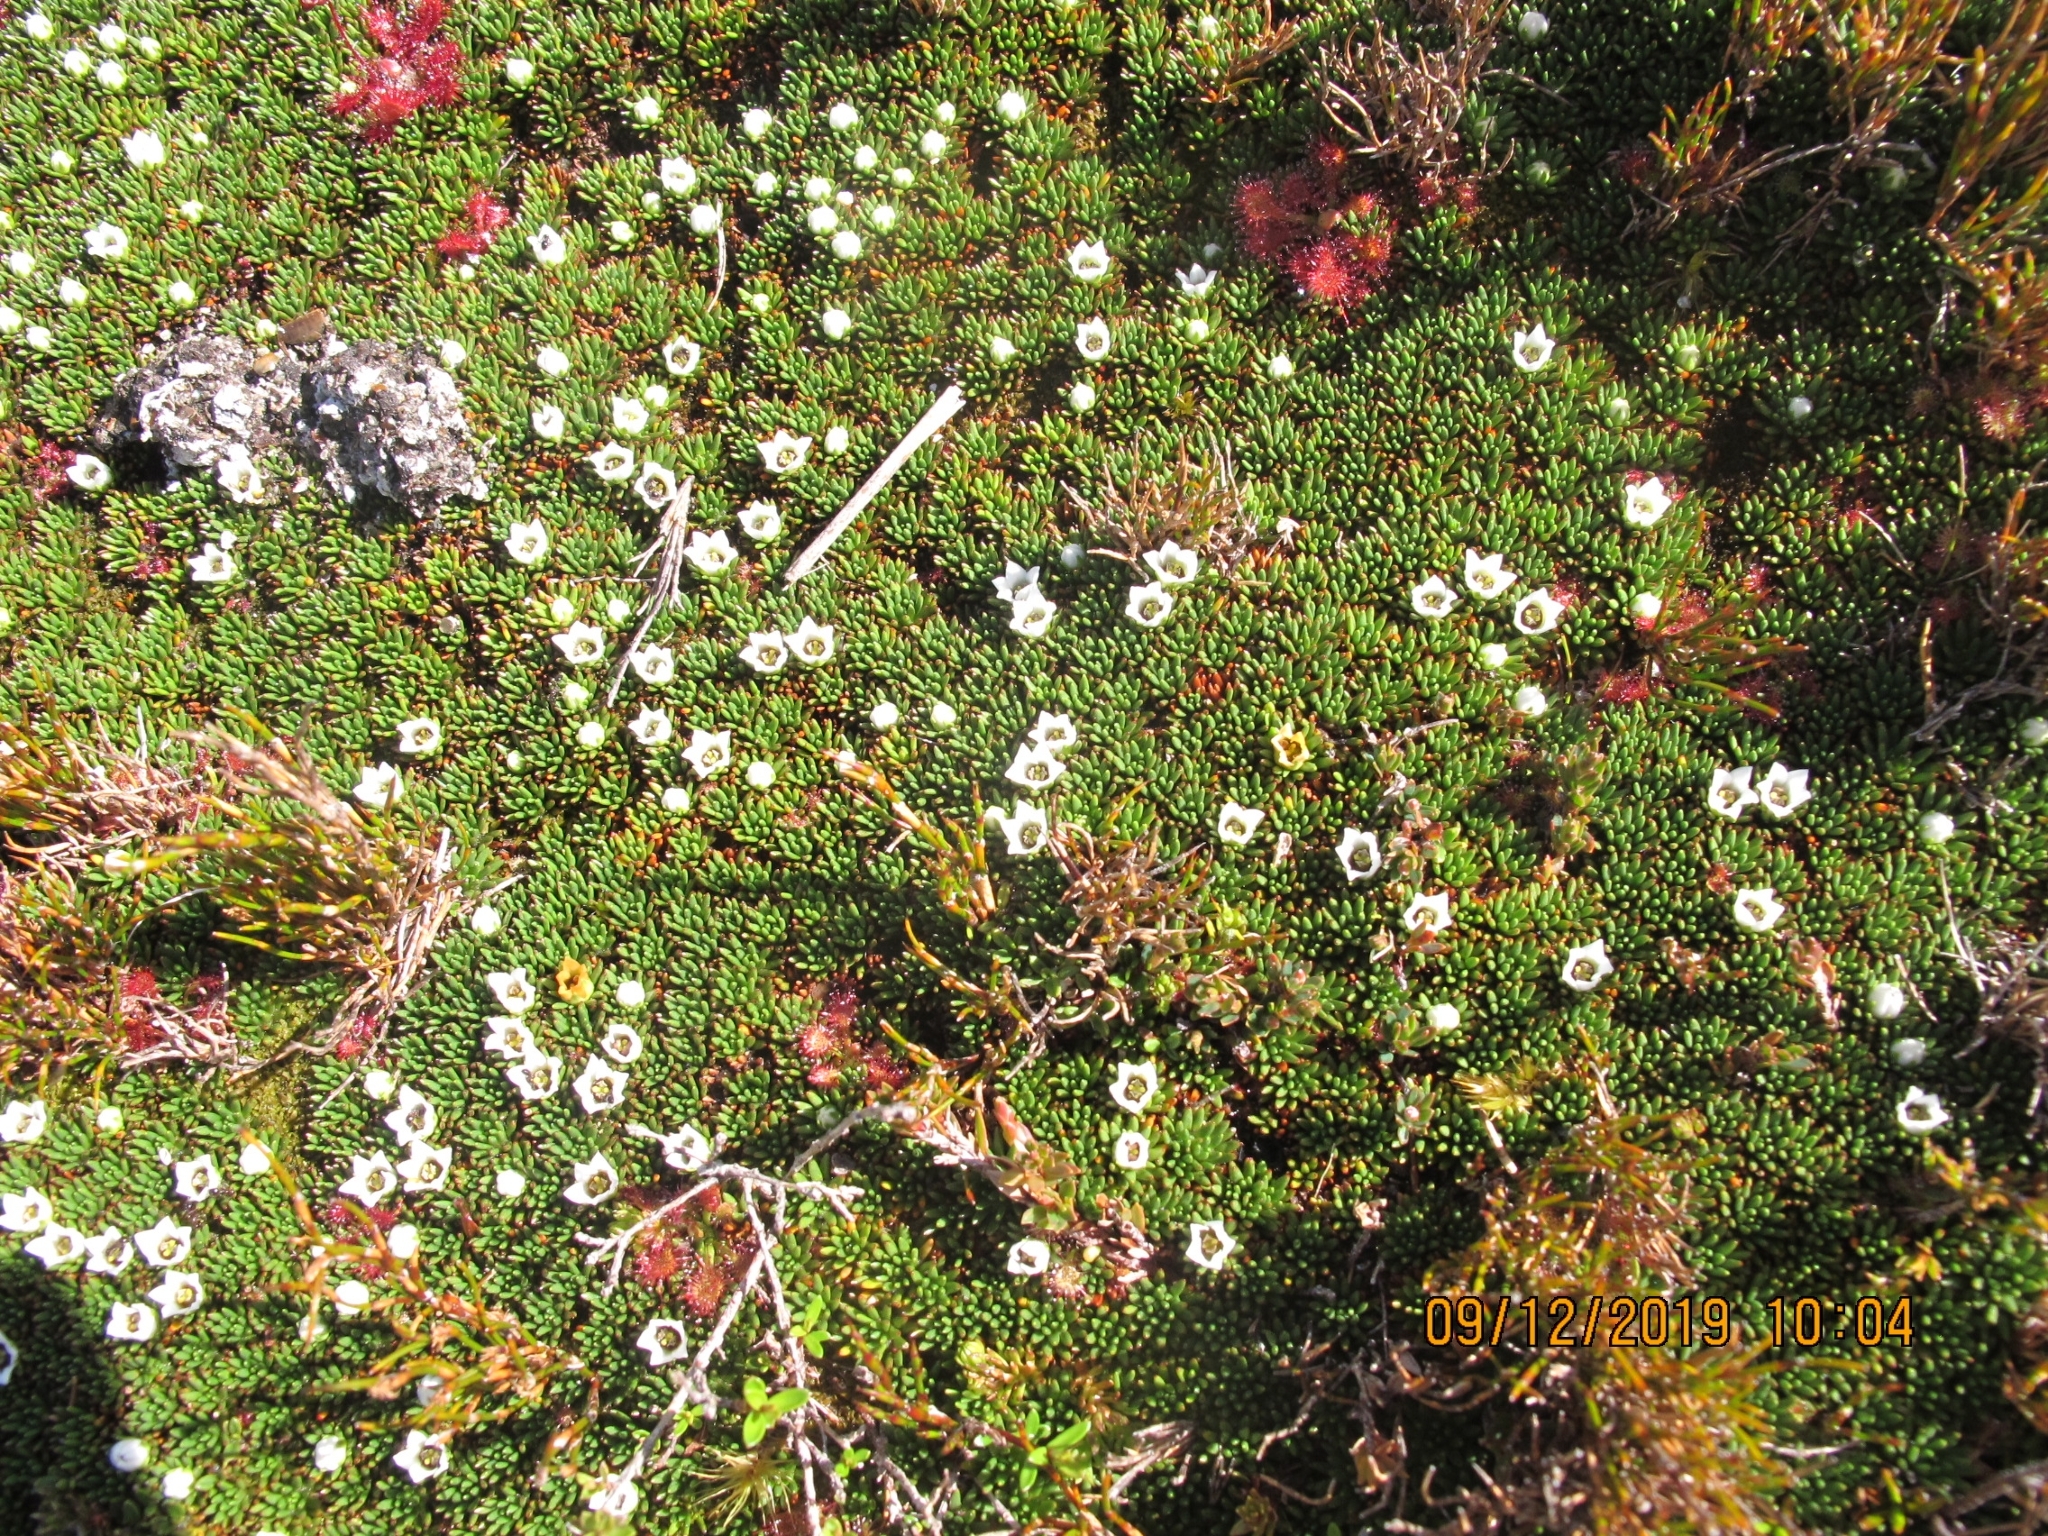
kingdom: Plantae
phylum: Tracheophyta
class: Magnoliopsida
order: Asterales
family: Stylidiaceae
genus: Donatia
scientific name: Donatia novae-zelandiae
